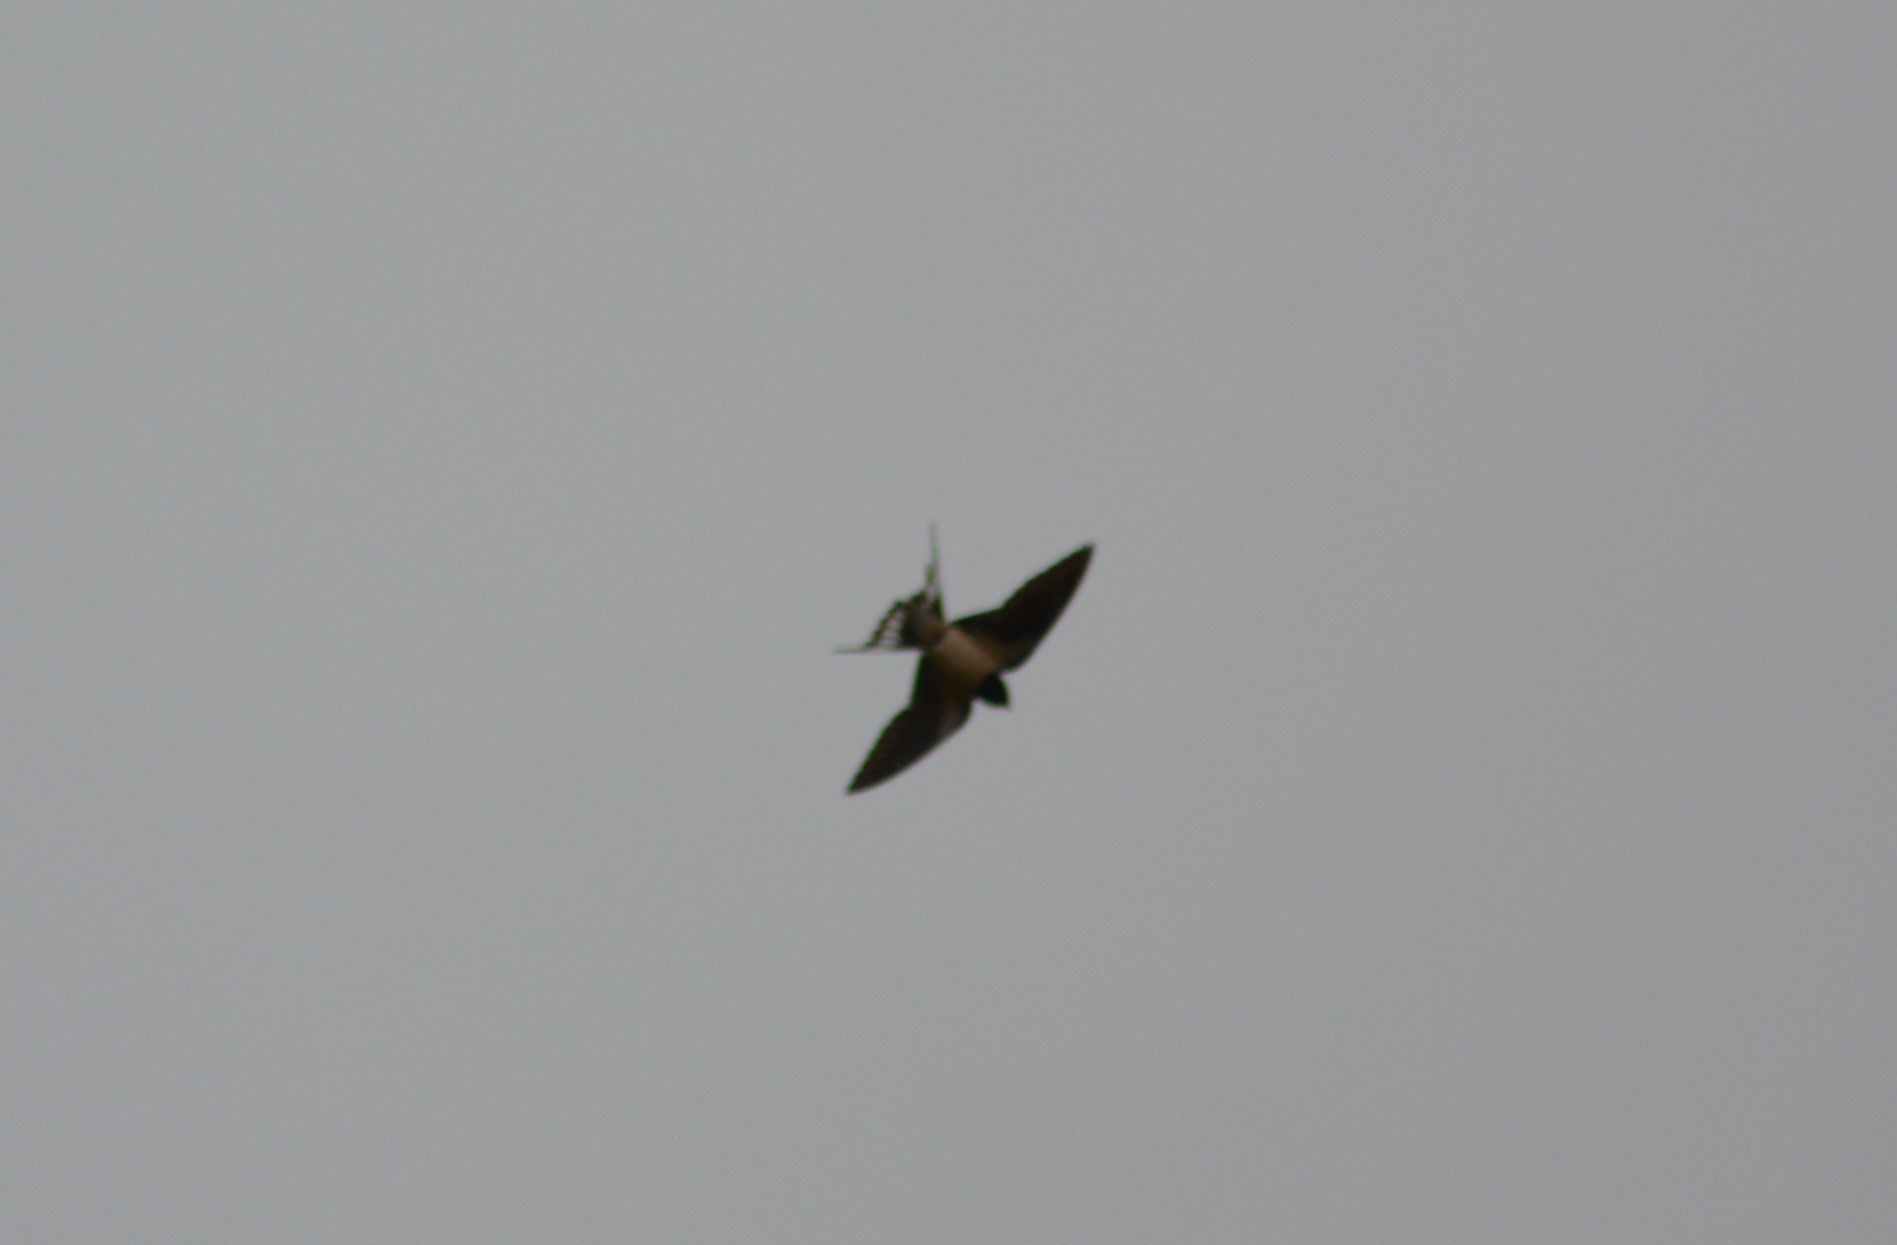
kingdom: Animalia
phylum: Chordata
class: Aves
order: Passeriformes
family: Hirundinidae
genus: Hirundo
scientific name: Hirundo rustica
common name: Barn swallow
